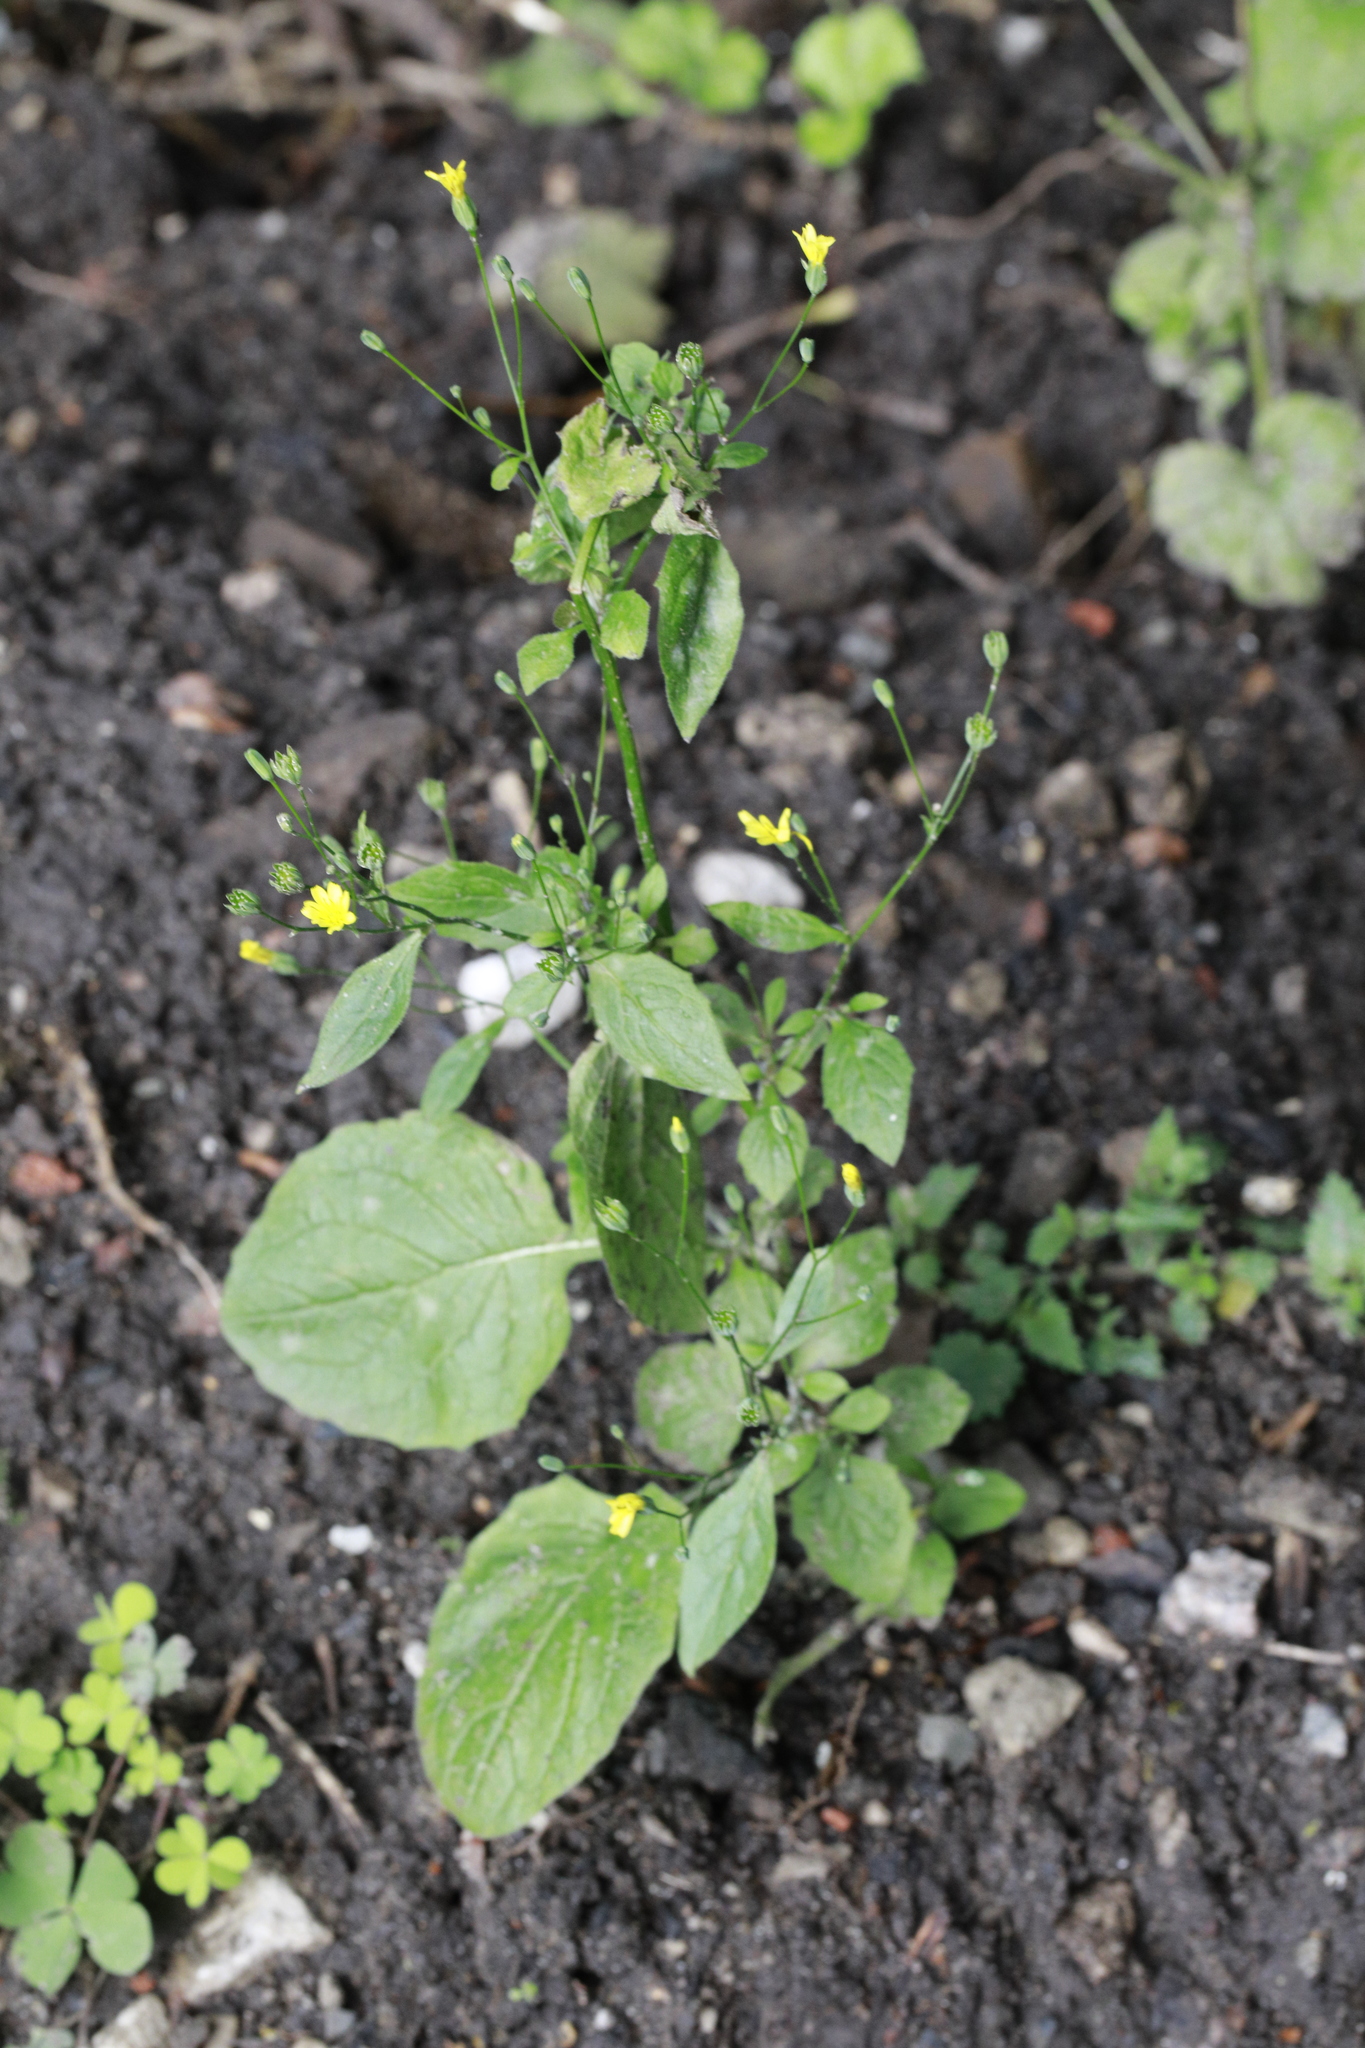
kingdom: Plantae
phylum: Tracheophyta
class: Magnoliopsida
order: Asterales
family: Asteraceae
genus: Lapsana
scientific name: Lapsana communis
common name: Nipplewort
